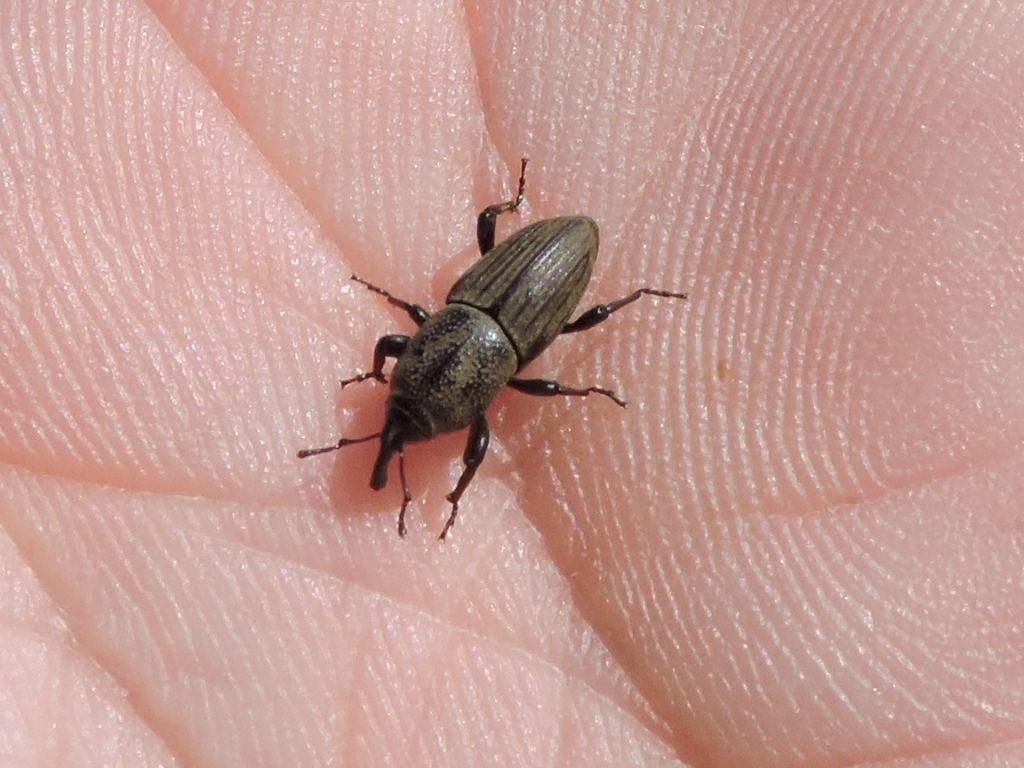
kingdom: Animalia
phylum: Arthropoda
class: Insecta
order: Coleoptera
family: Dryophthoridae
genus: Sphenophorus
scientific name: Sphenophorus coesifrons
